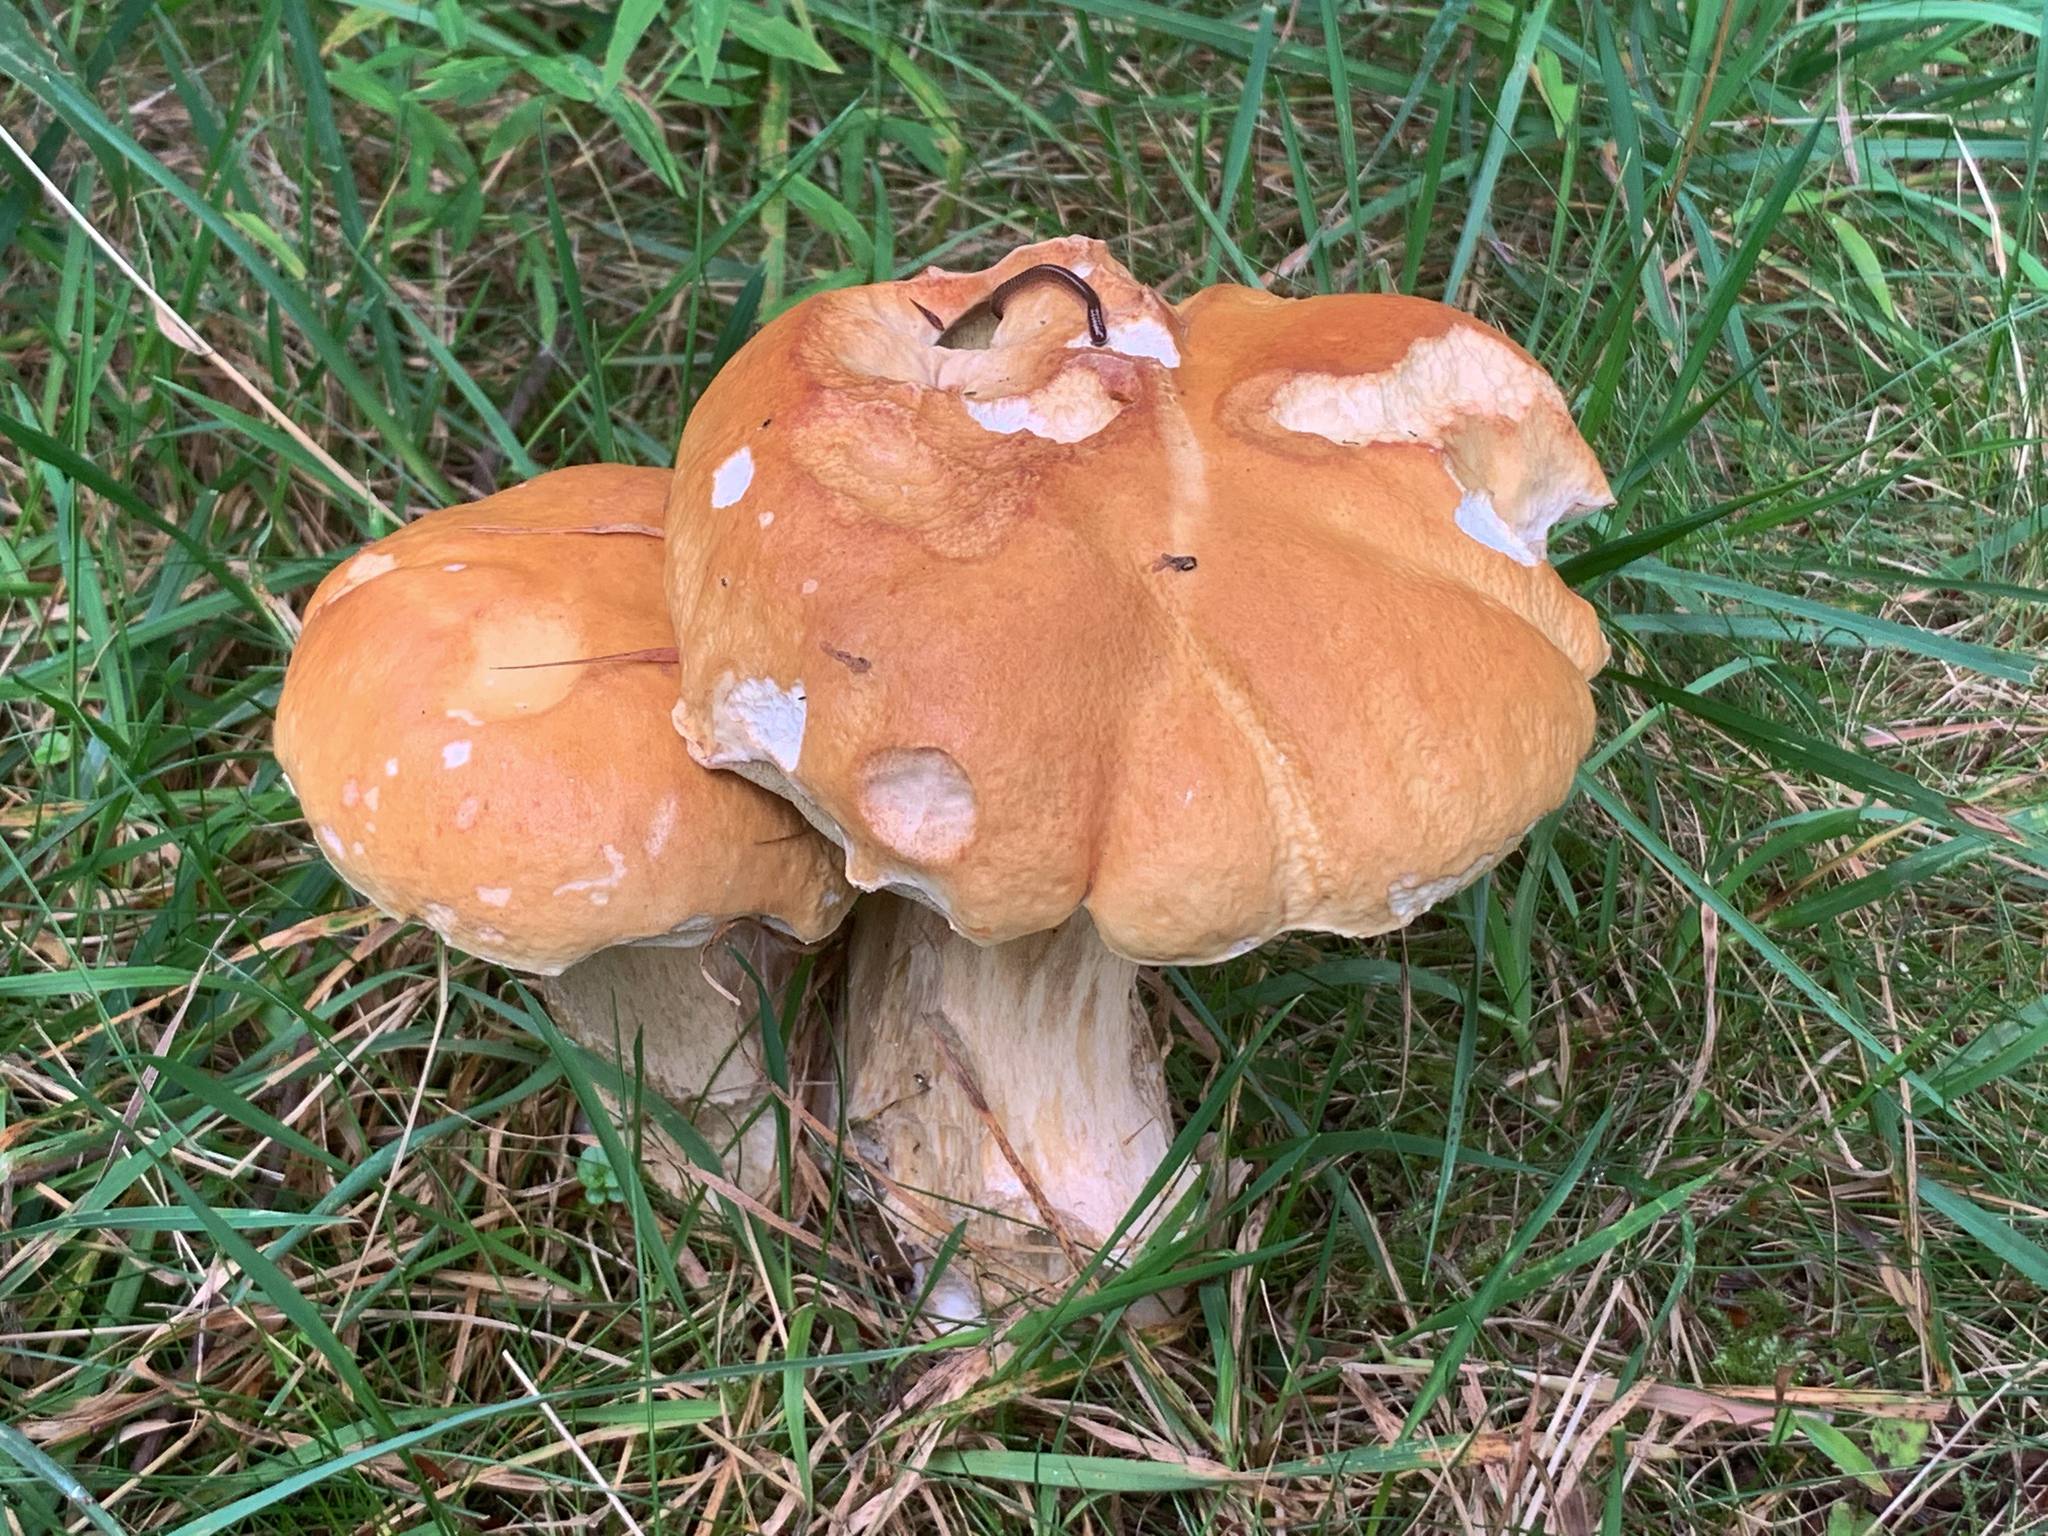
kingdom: Fungi
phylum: Basidiomycota
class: Agaricomycetes
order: Boletales
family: Boletaceae
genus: Boletus
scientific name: Boletus edulis
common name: Cep
